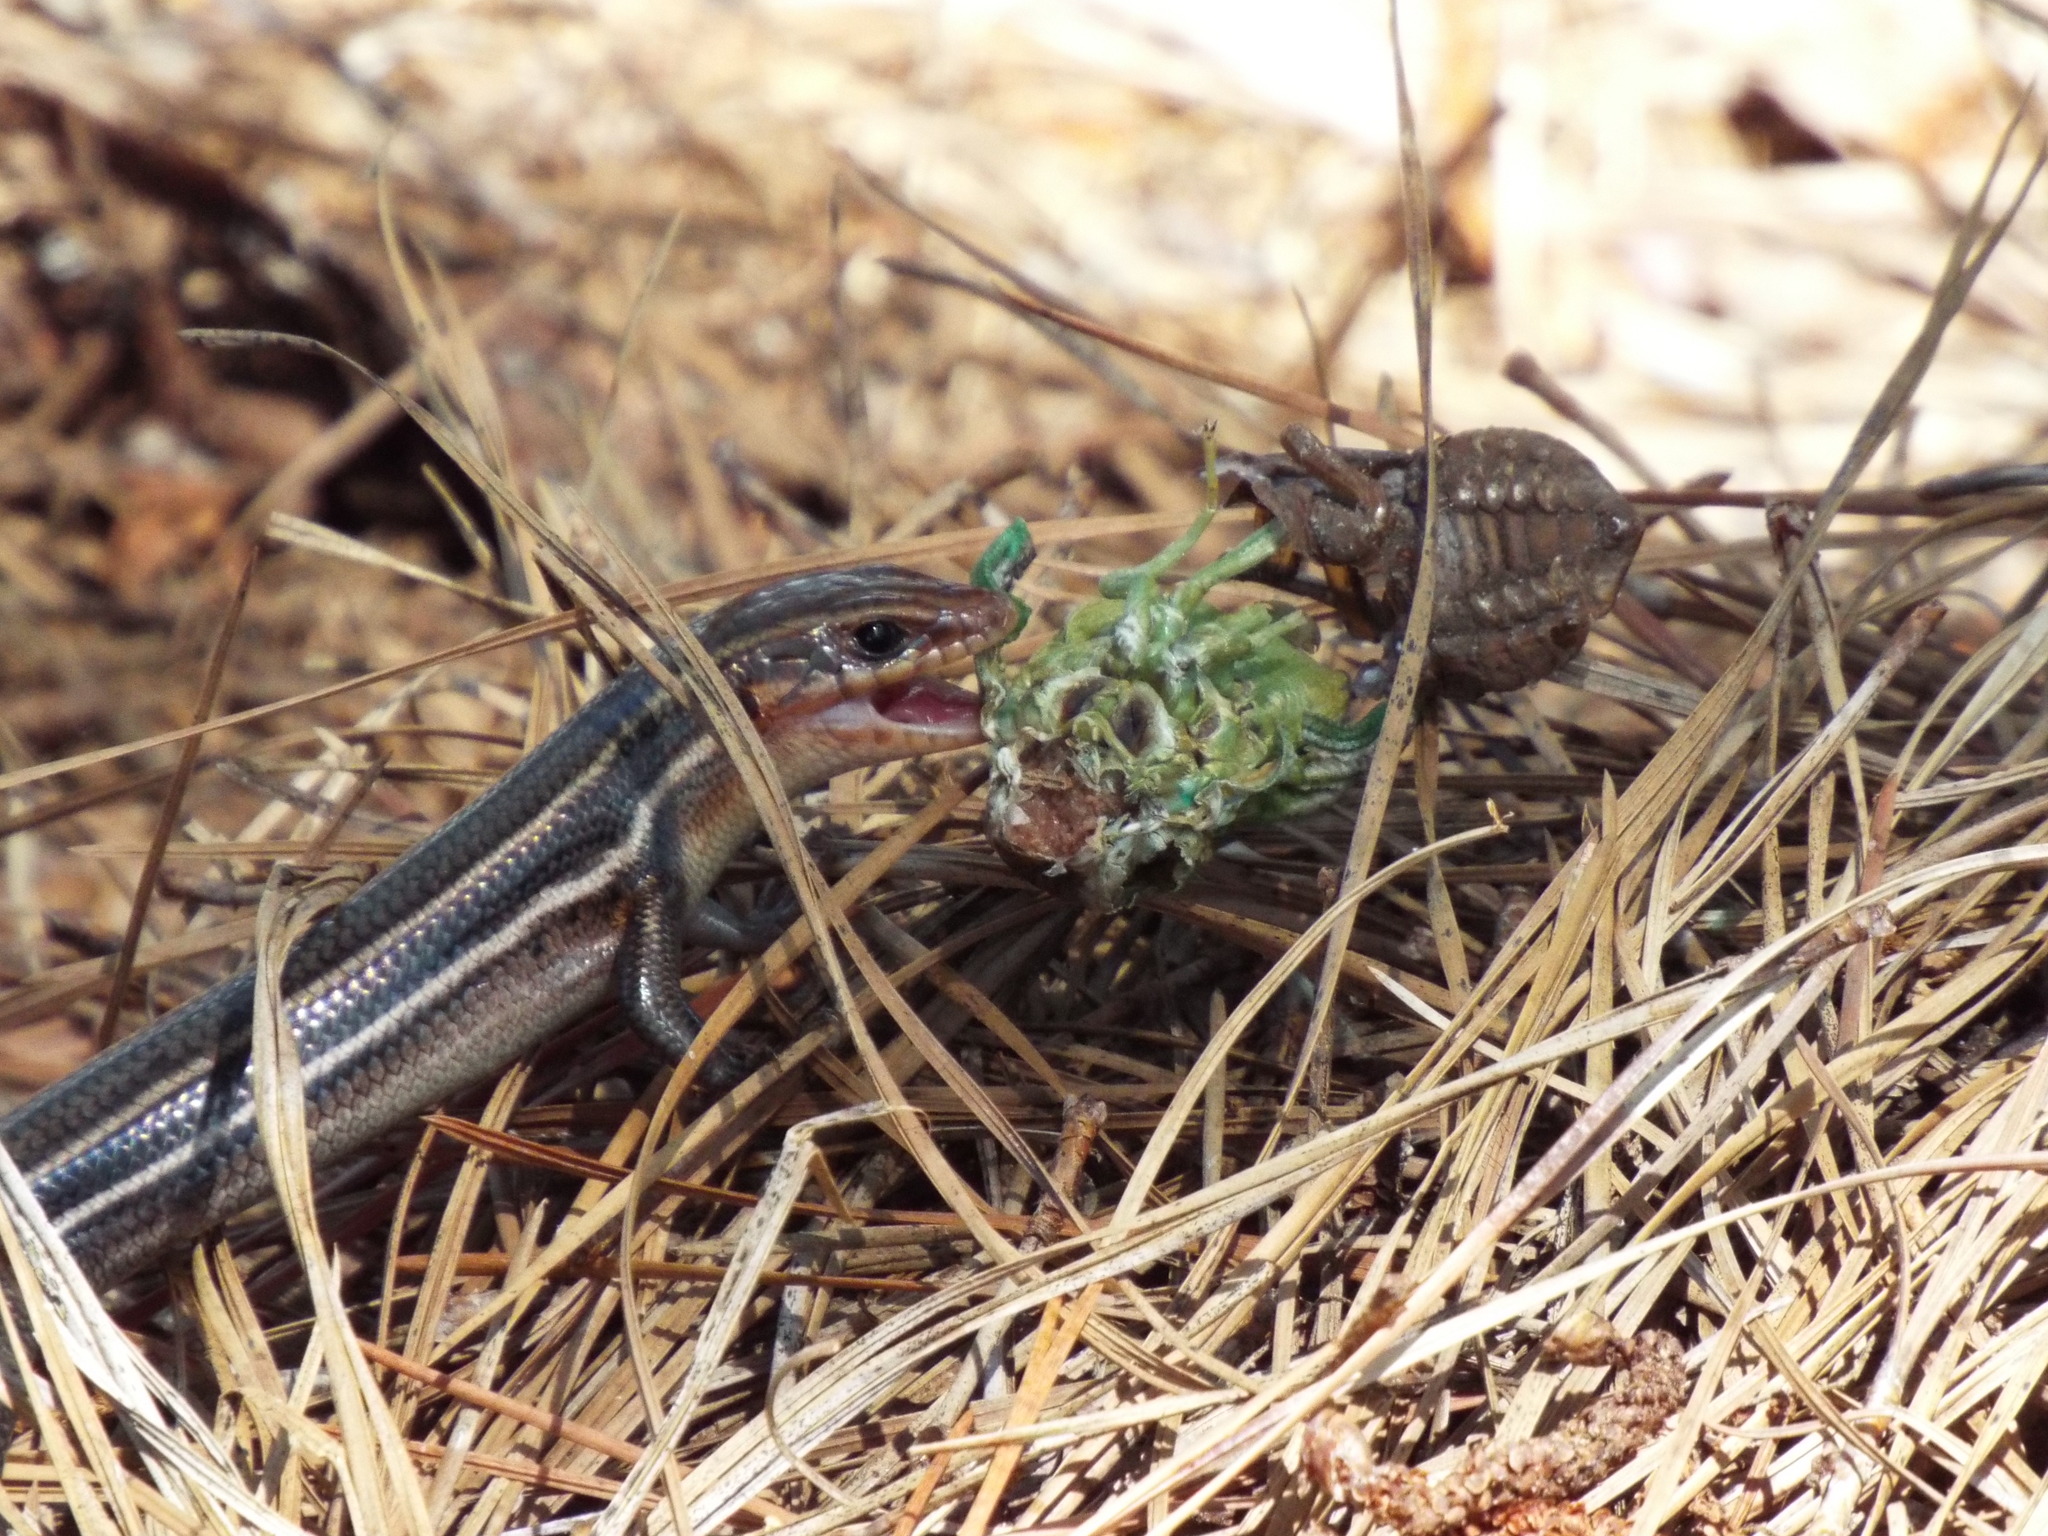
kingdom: Animalia
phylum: Chordata
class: Squamata
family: Scincidae
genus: Plestiodon
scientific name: Plestiodon inexpectatus
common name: Southeastern five-lined skink
